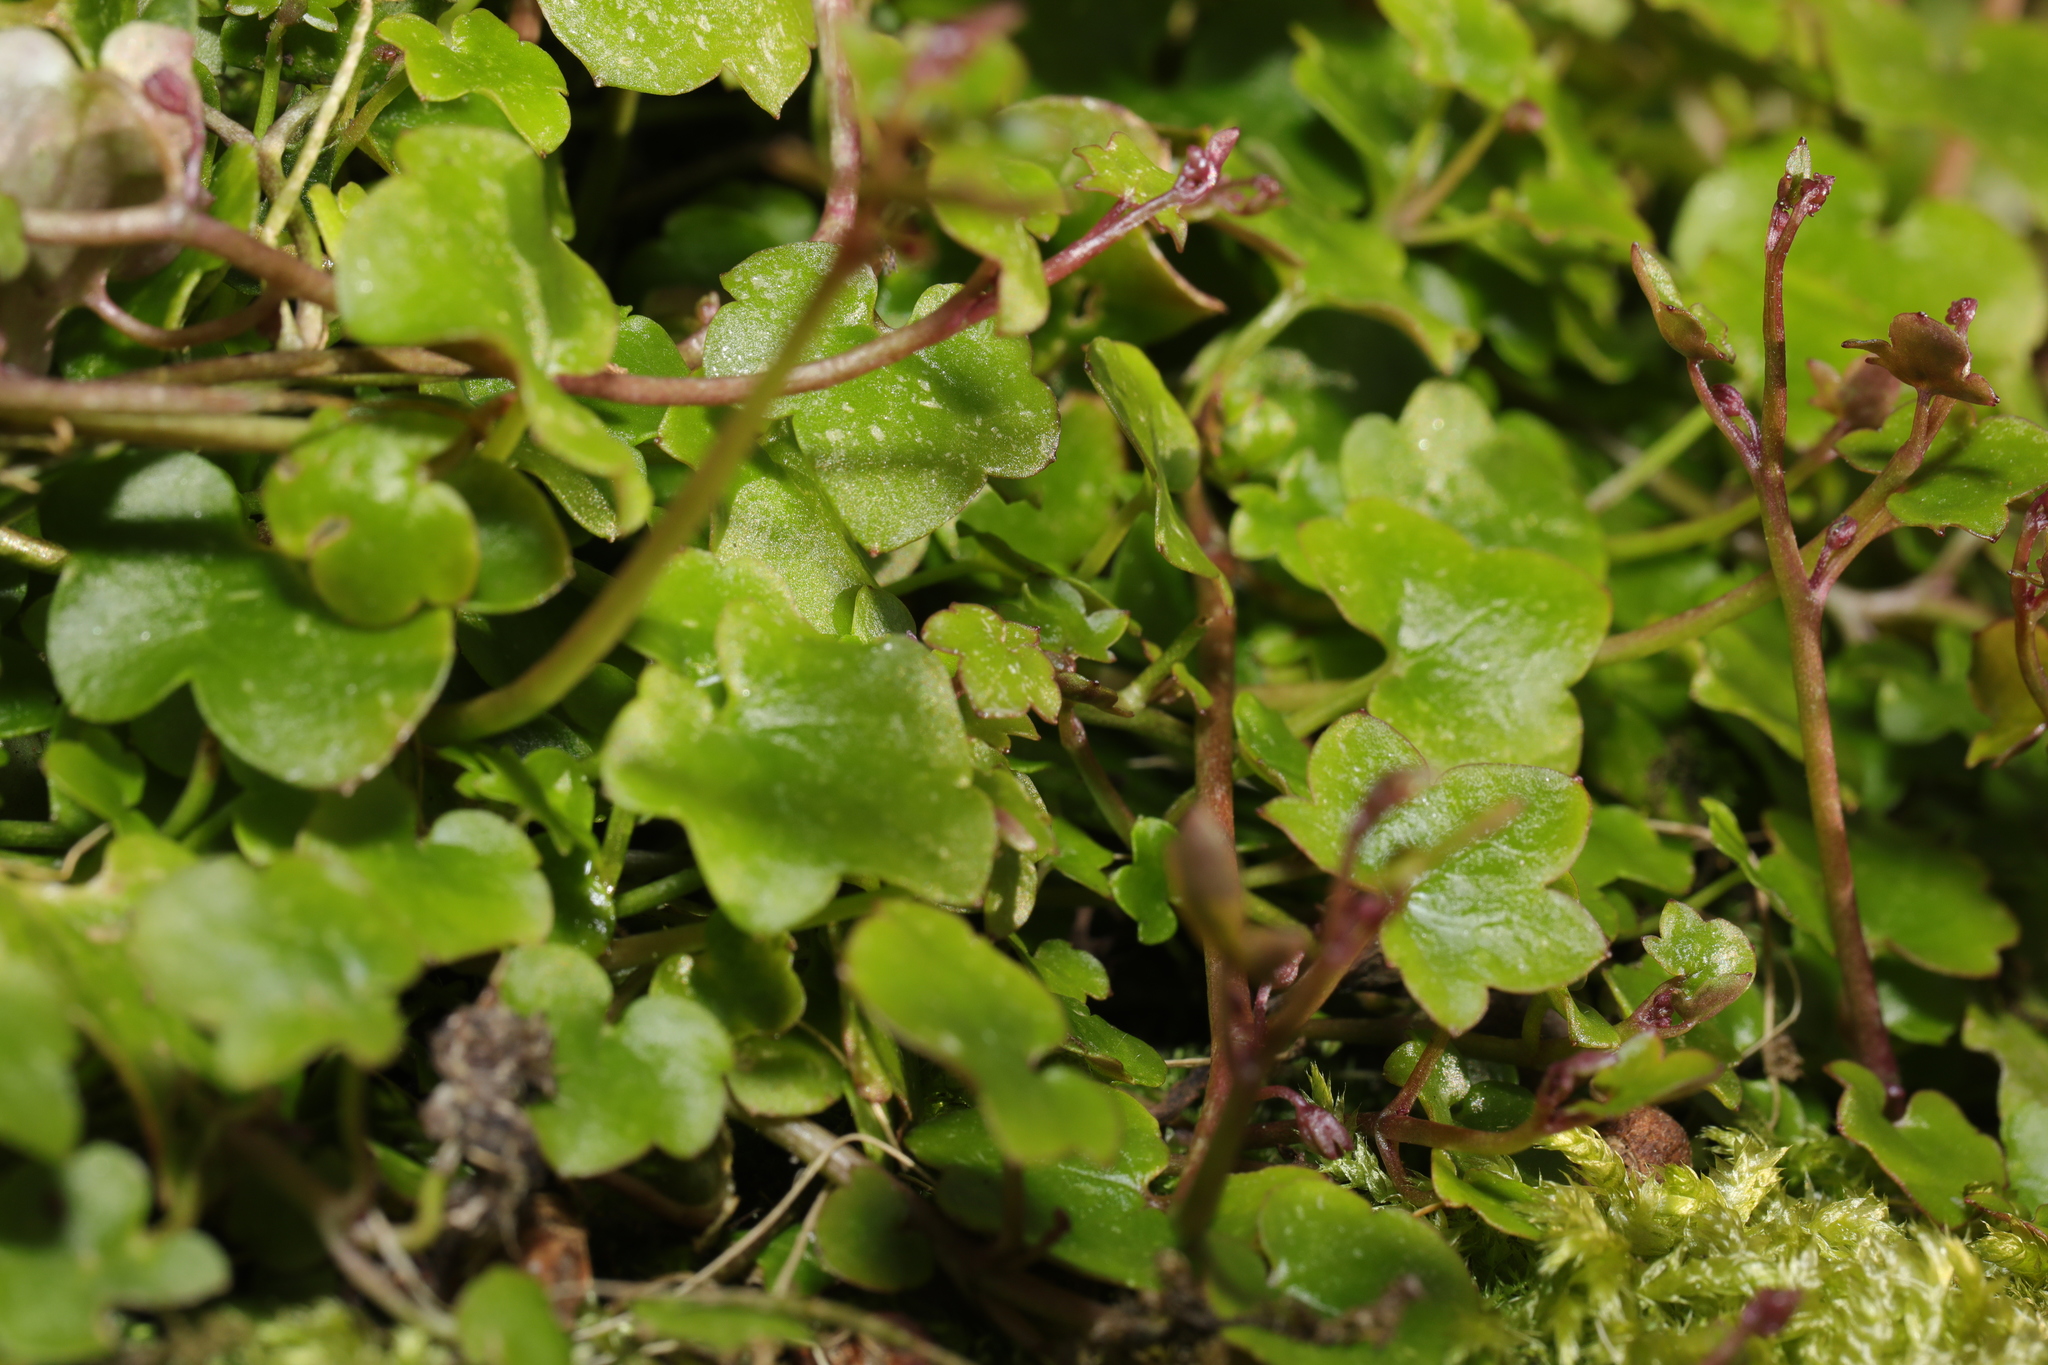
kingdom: Plantae
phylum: Tracheophyta
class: Magnoliopsida
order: Lamiales
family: Plantaginaceae
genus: Cymbalaria
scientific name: Cymbalaria muralis
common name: Ivy-leaved toadflax
